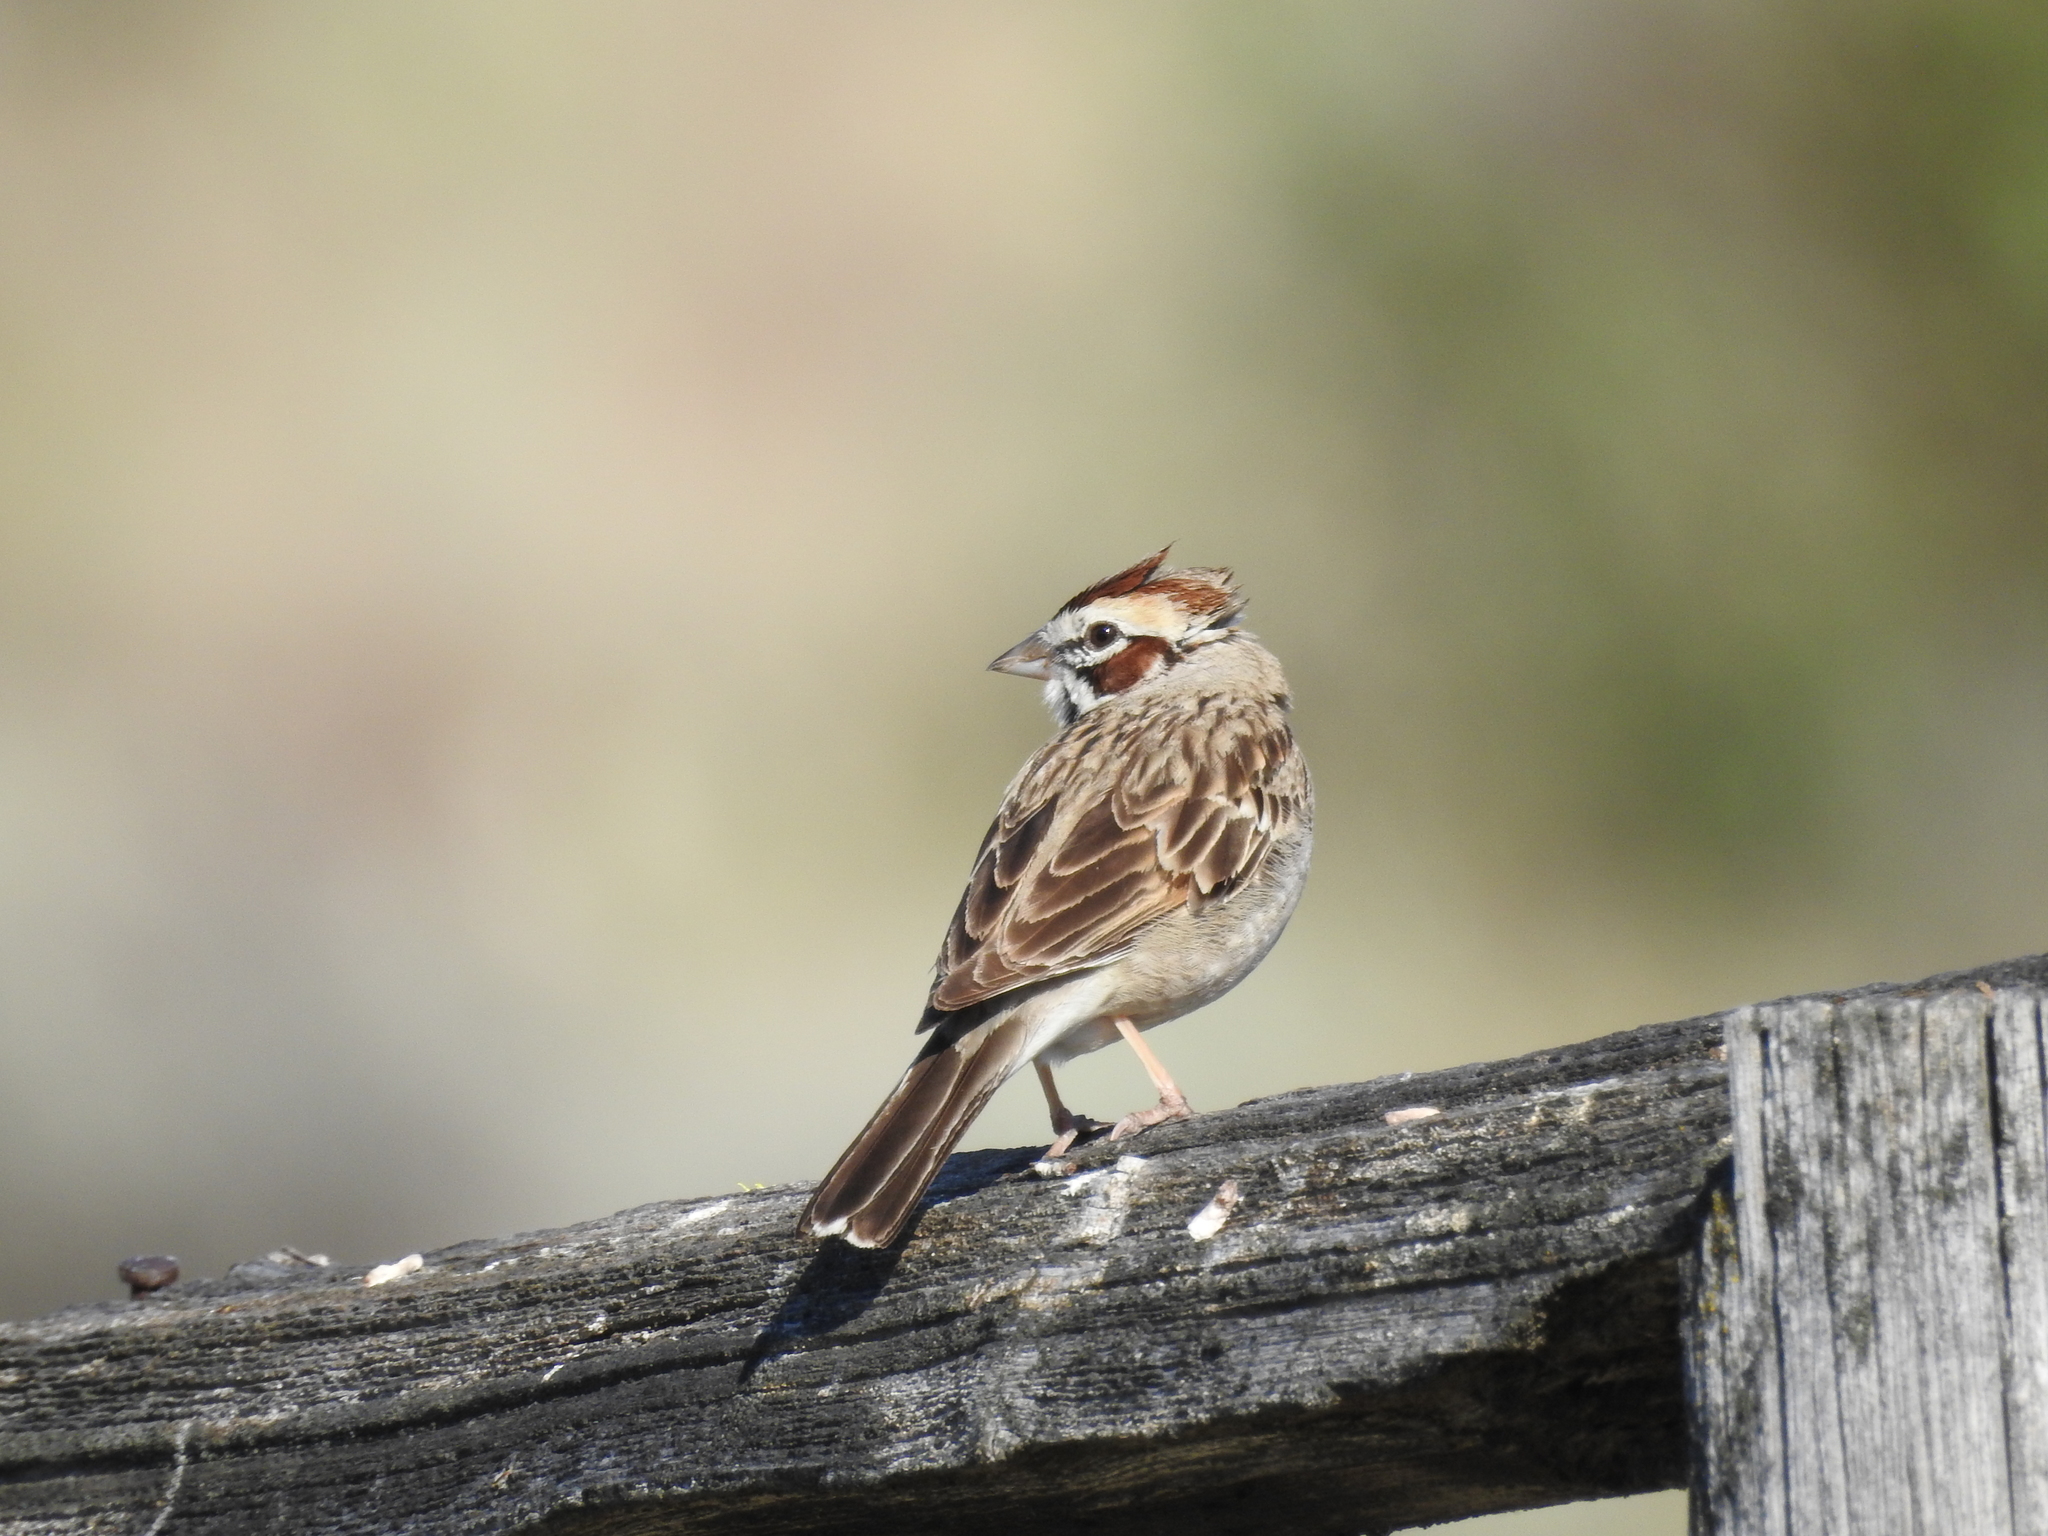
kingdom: Animalia
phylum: Chordata
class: Aves
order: Passeriformes
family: Passerellidae
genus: Chondestes
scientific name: Chondestes grammacus
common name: Lark sparrow
